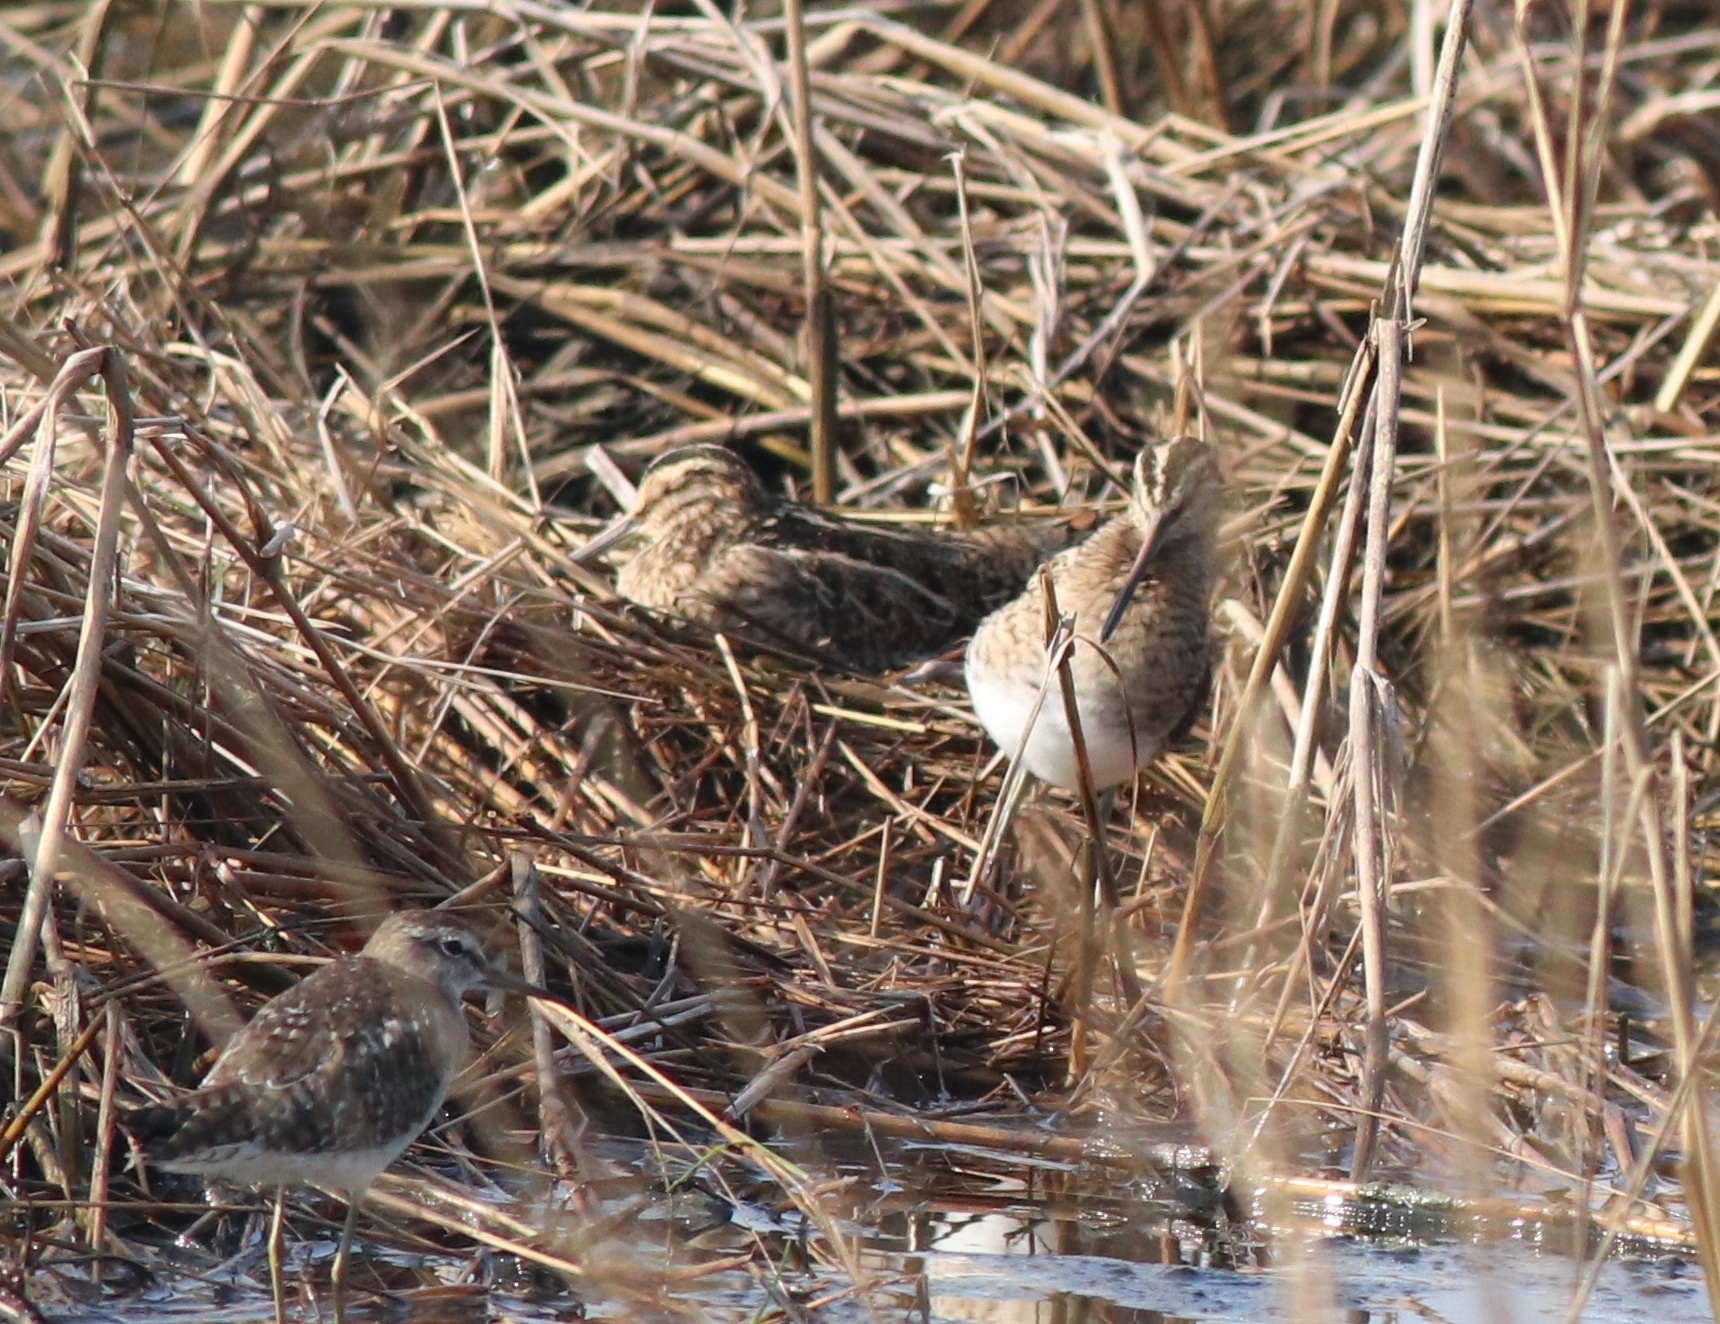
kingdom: Animalia
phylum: Chordata
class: Aves
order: Charadriiformes
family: Scolopacidae
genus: Gallinago
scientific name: Gallinago gallinago
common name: Common snipe
